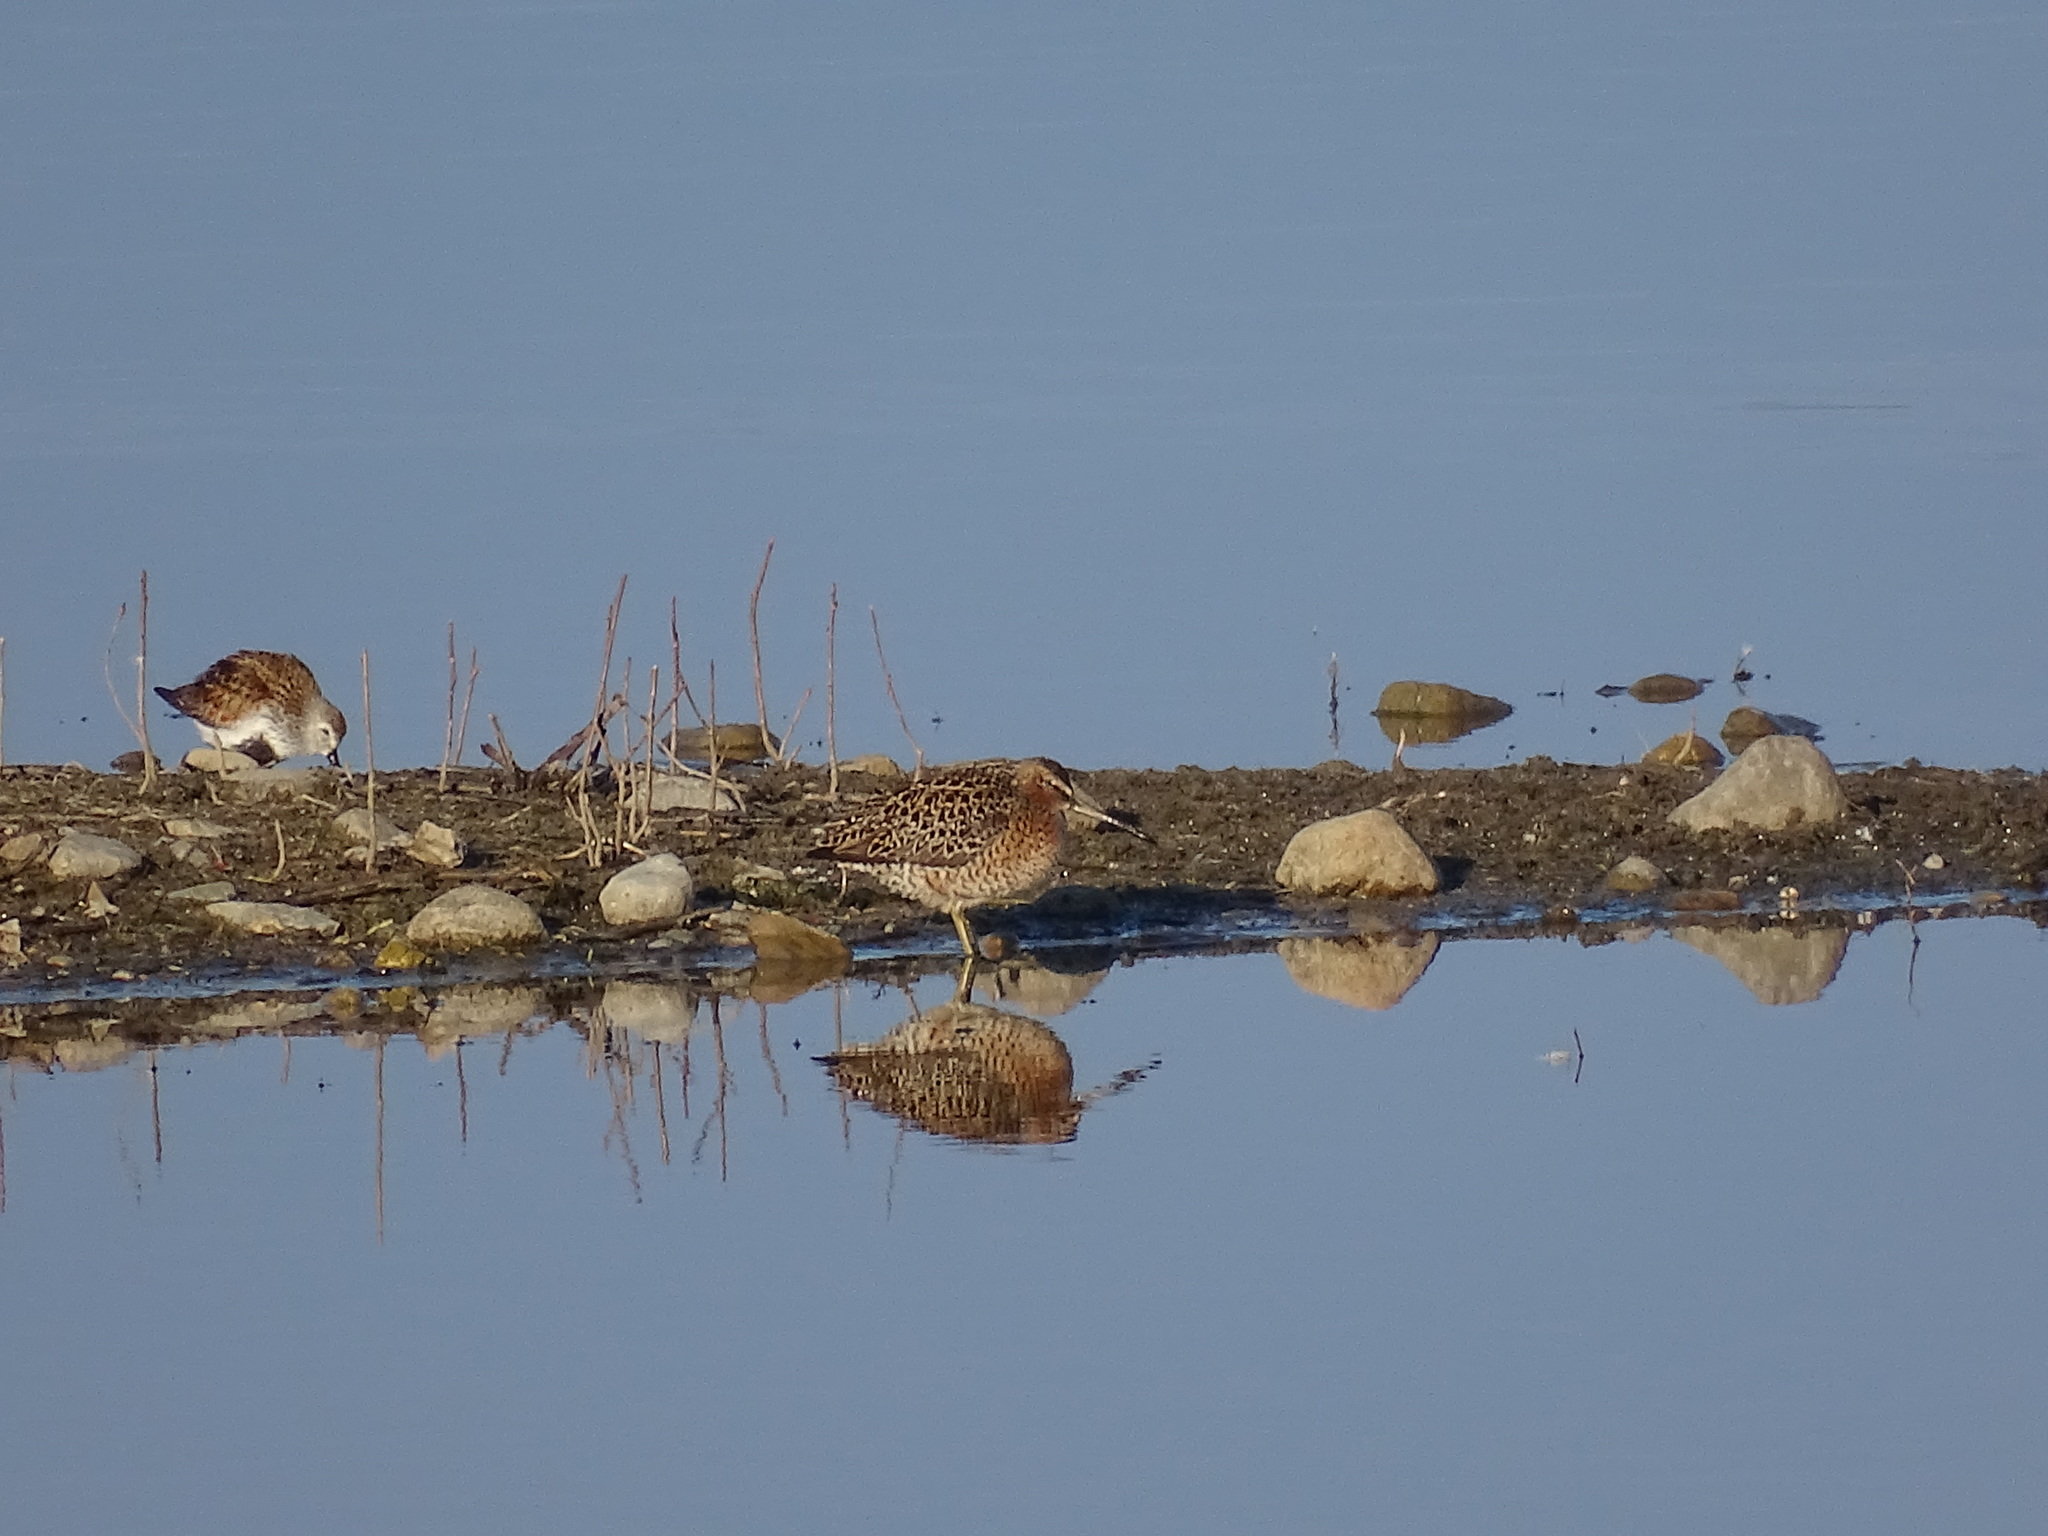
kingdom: Animalia
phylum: Chordata
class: Aves
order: Charadriiformes
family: Scolopacidae
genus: Limnodromus
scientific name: Limnodromus griseus
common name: Short-billed dowitcher
